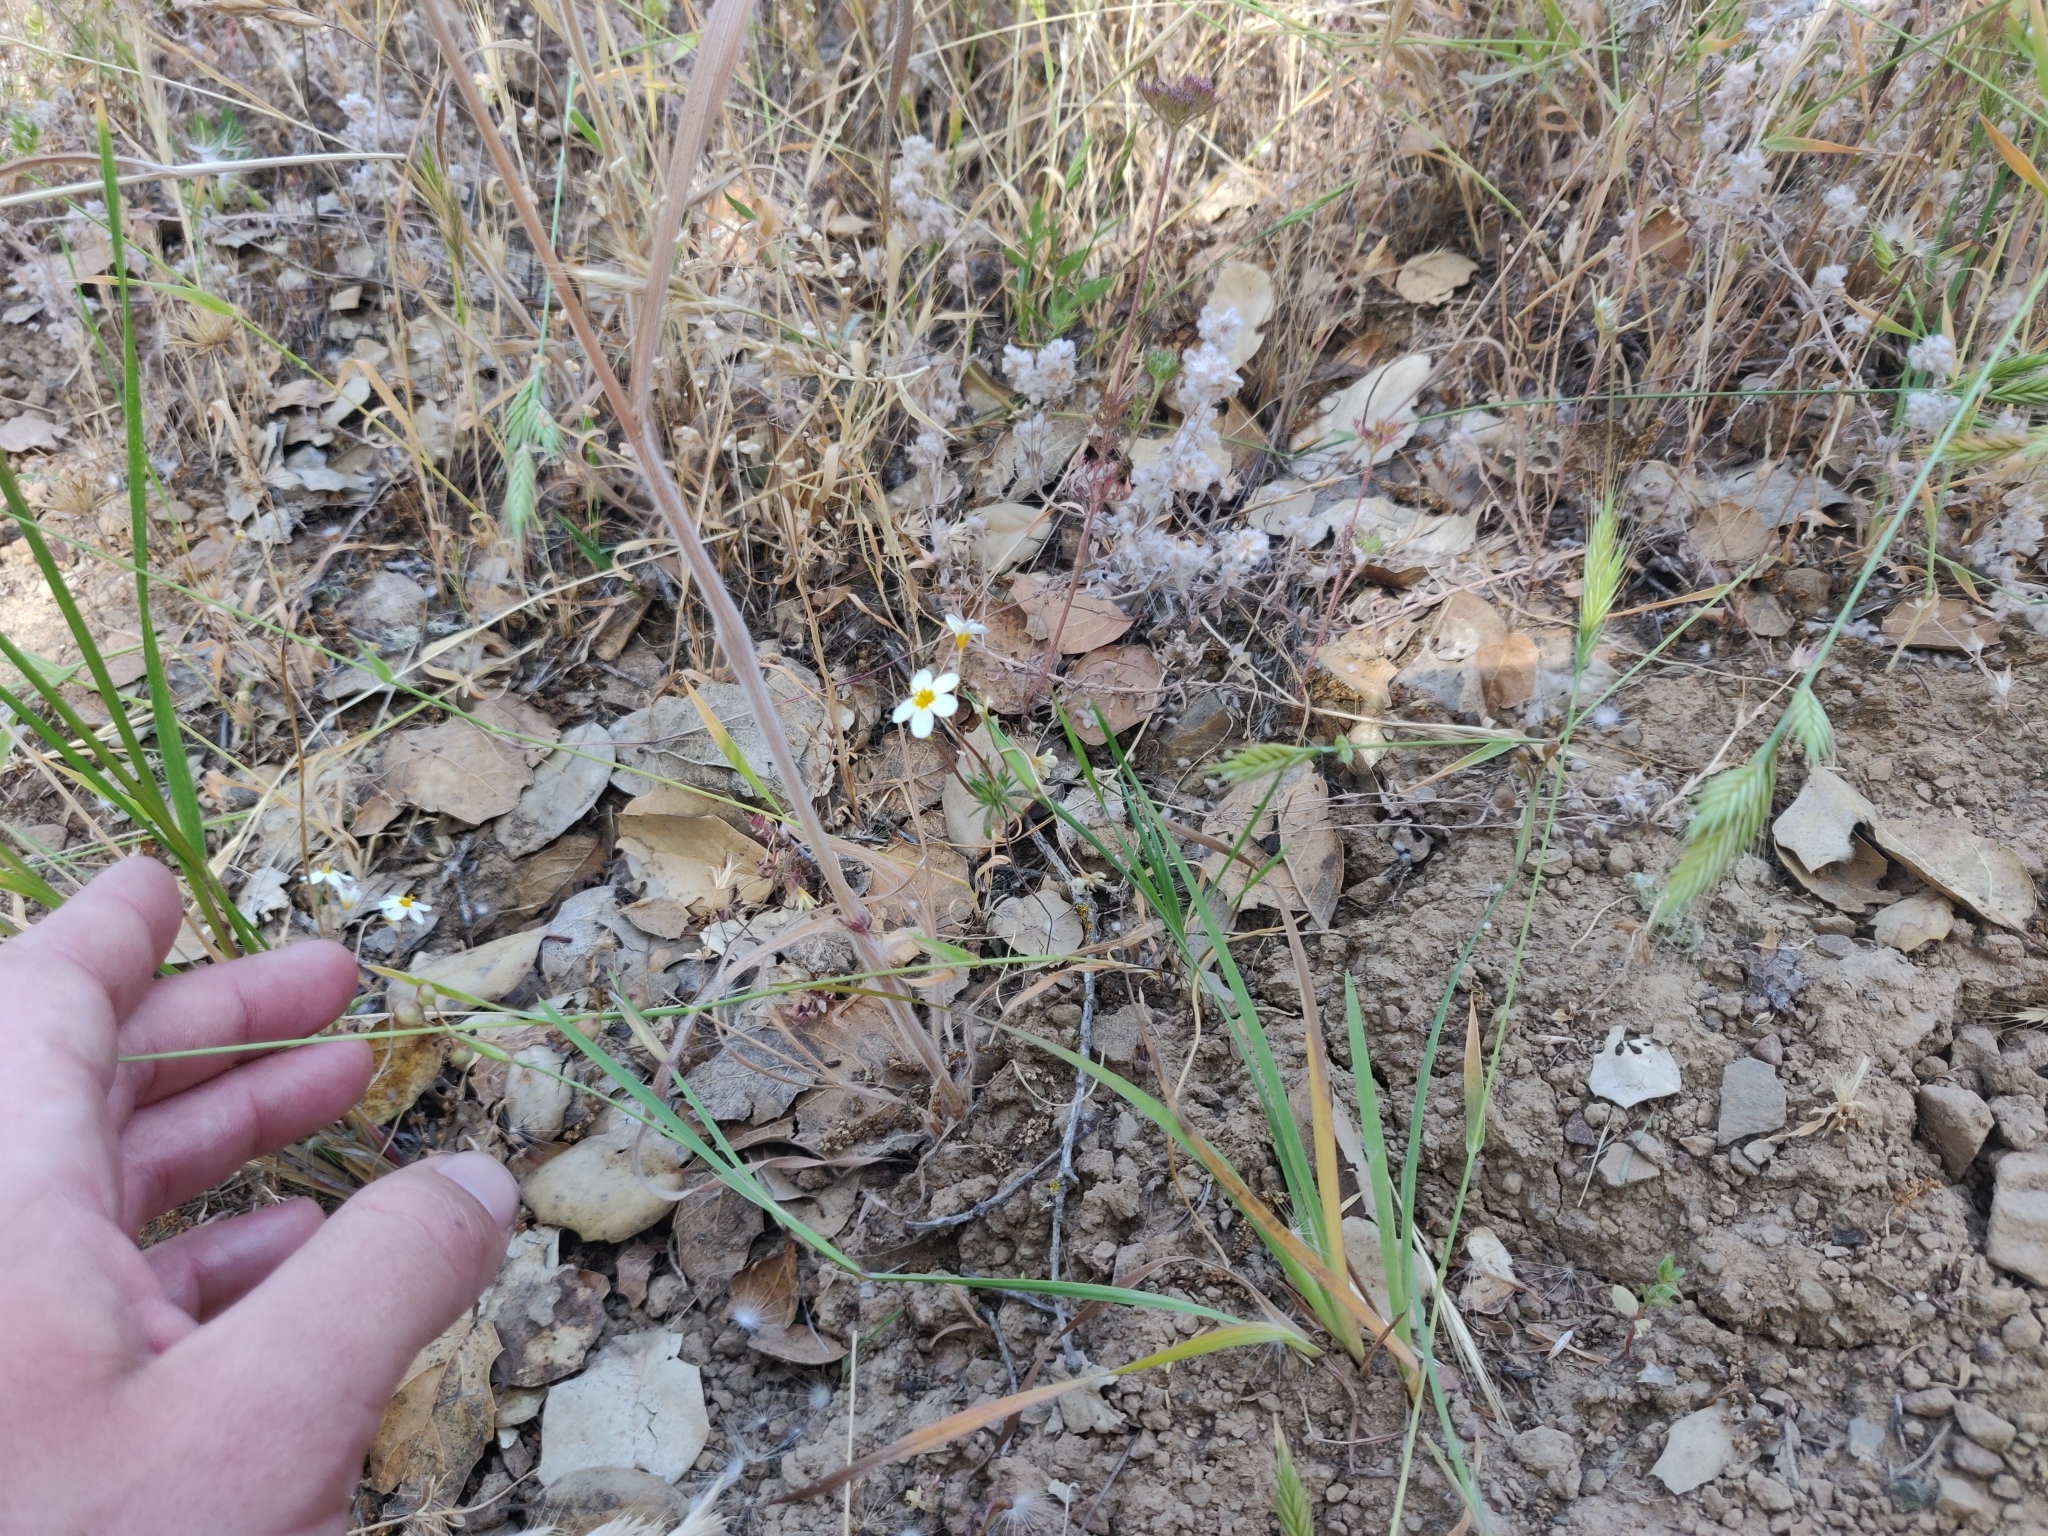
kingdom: Plantae
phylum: Tracheophyta
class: Magnoliopsida
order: Ericales
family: Polemoniaceae
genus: Leptosiphon
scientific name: Leptosiphon parviflorus
